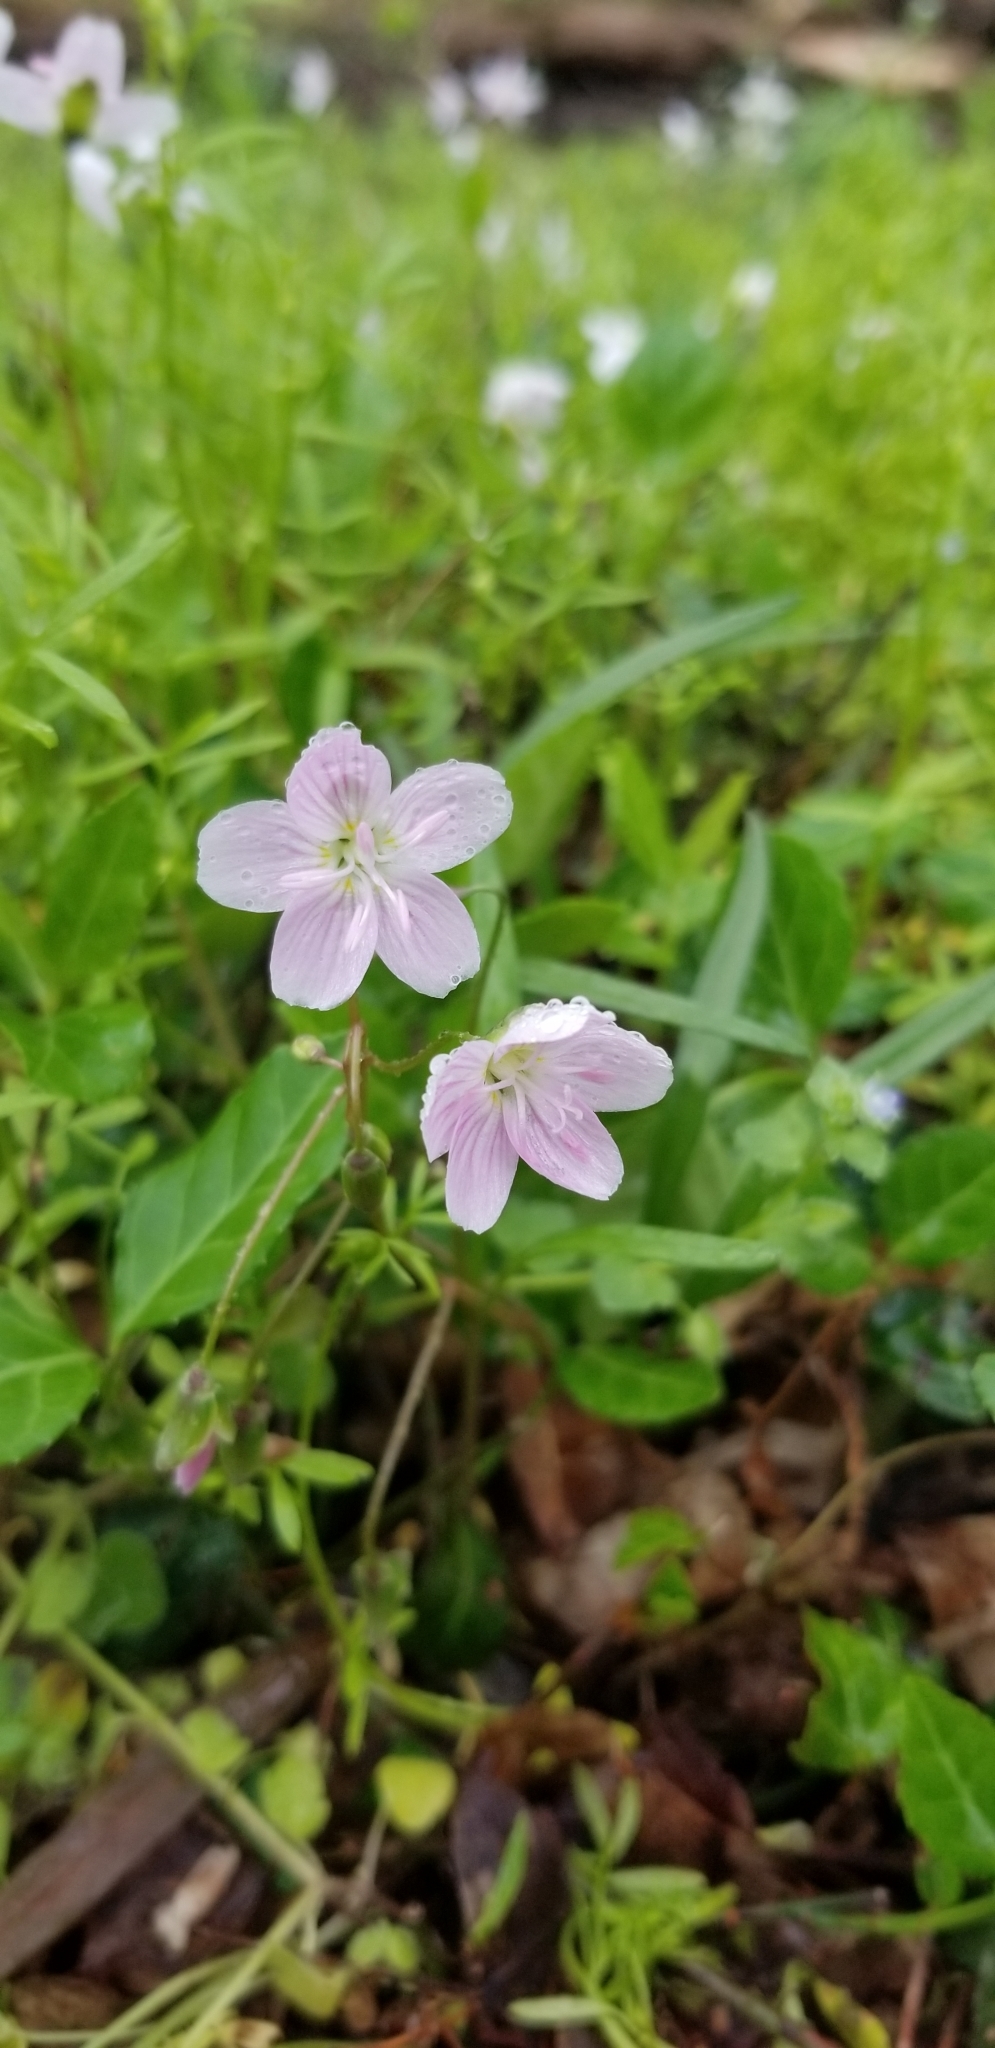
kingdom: Plantae
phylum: Tracheophyta
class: Magnoliopsida
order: Caryophyllales
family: Montiaceae
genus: Claytonia
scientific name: Claytonia virginica
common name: Virginia springbeauty
